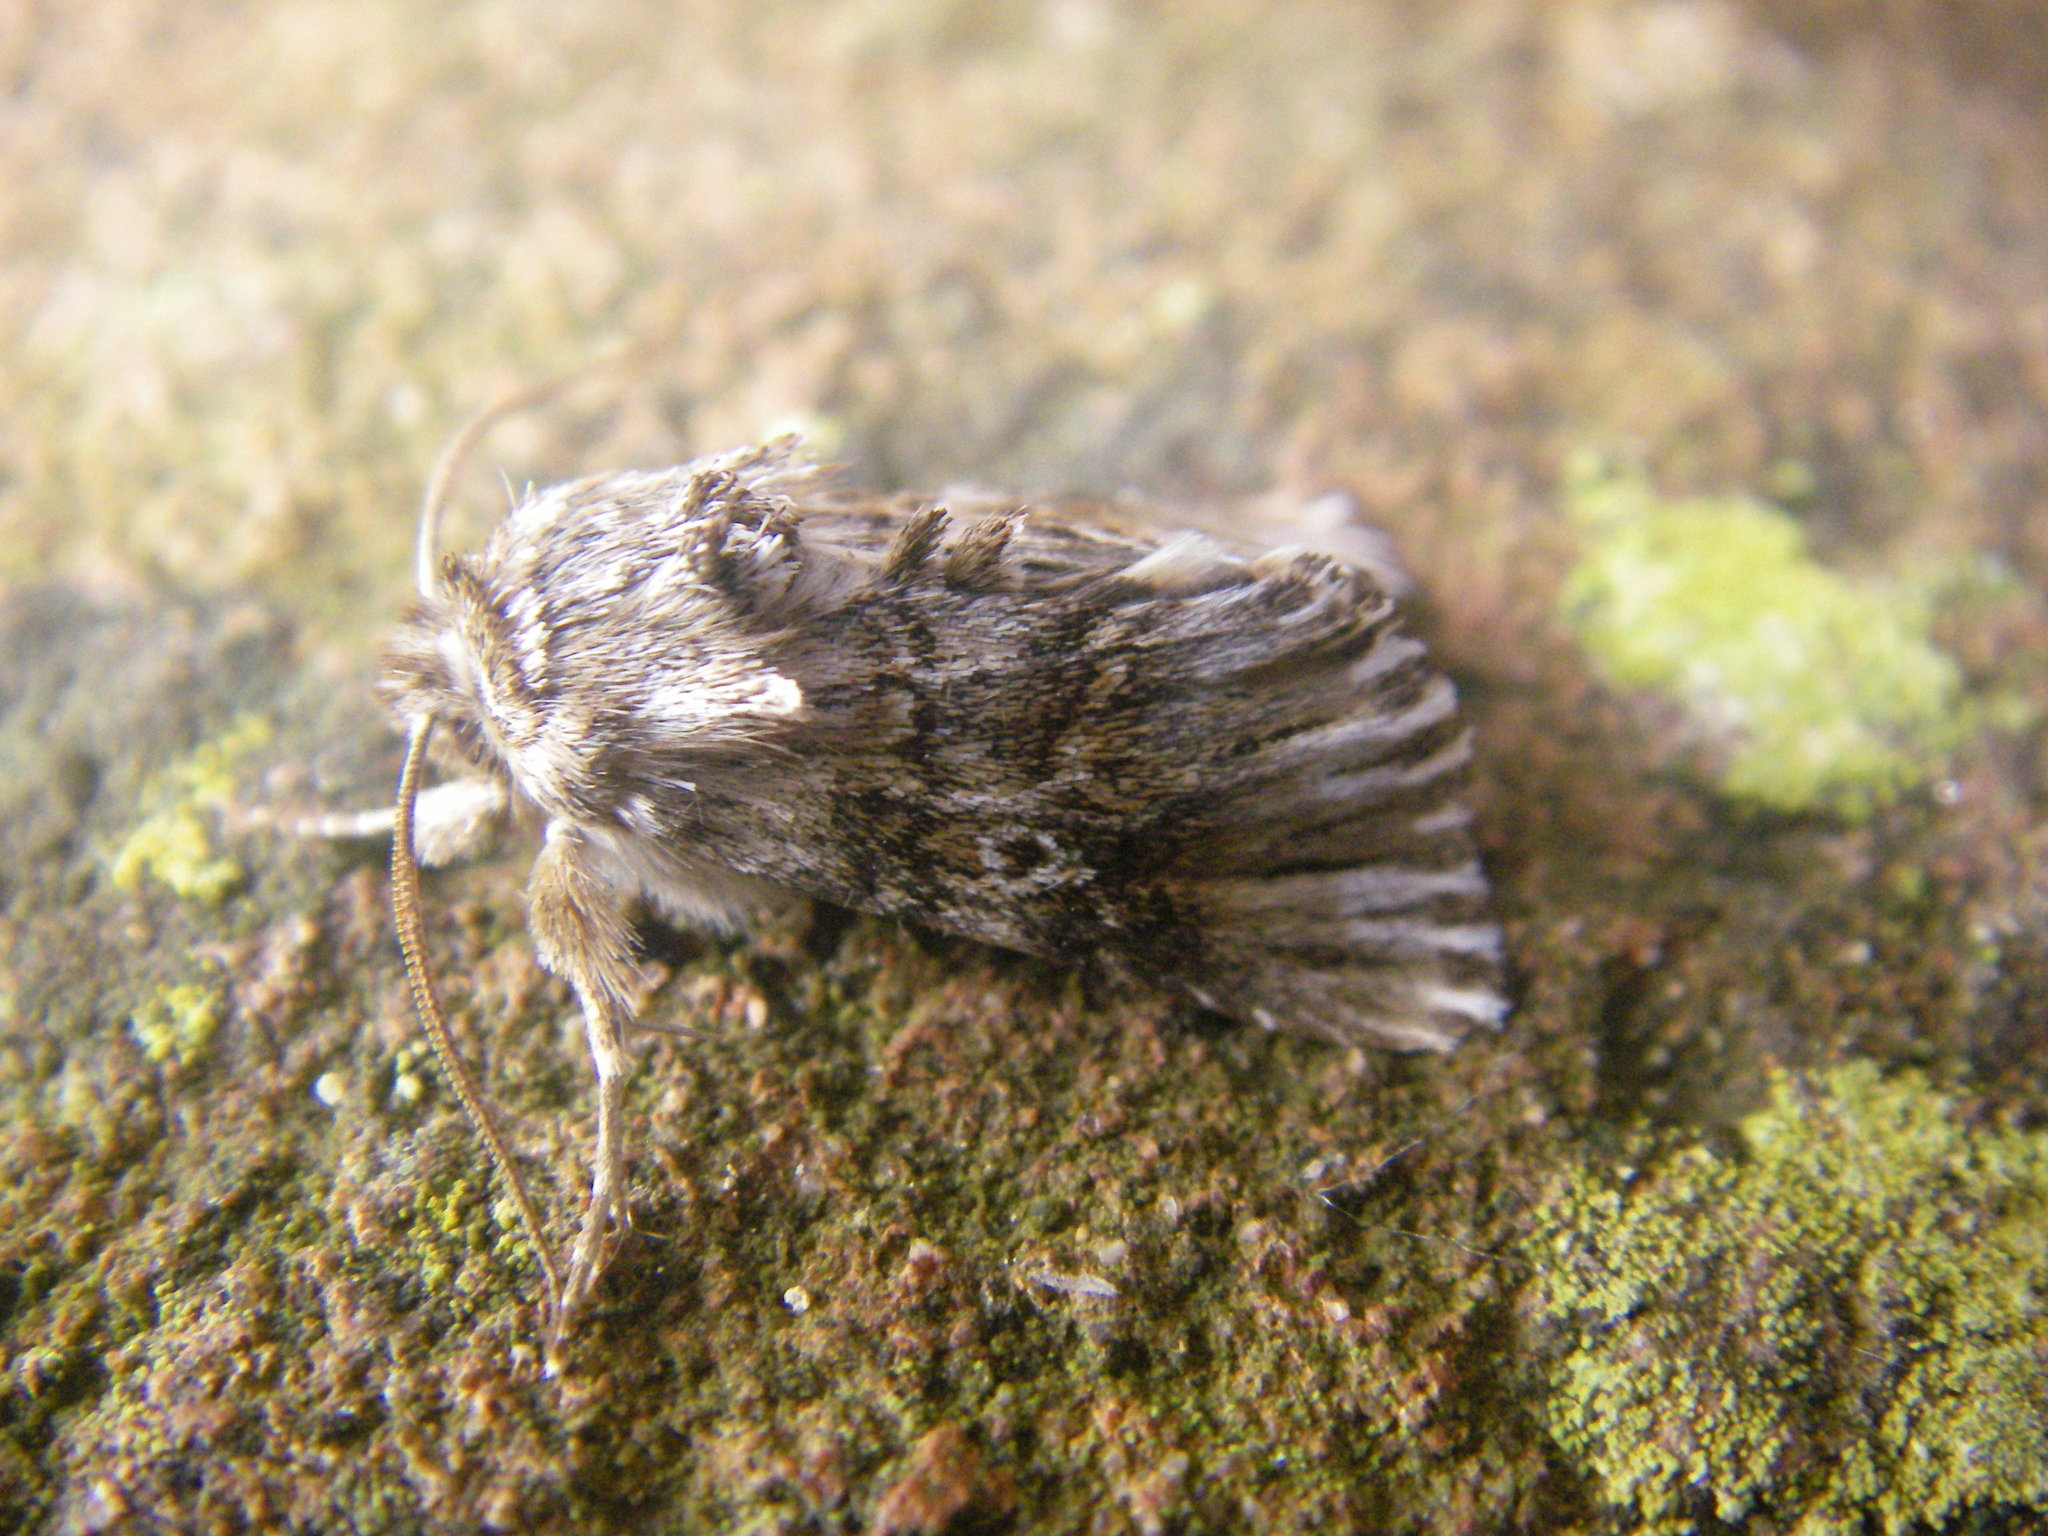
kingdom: Animalia
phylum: Arthropoda
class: Insecta
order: Lepidoptera
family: Noctuidae
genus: Omphalophana
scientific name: Omphalophana antirrhinii
